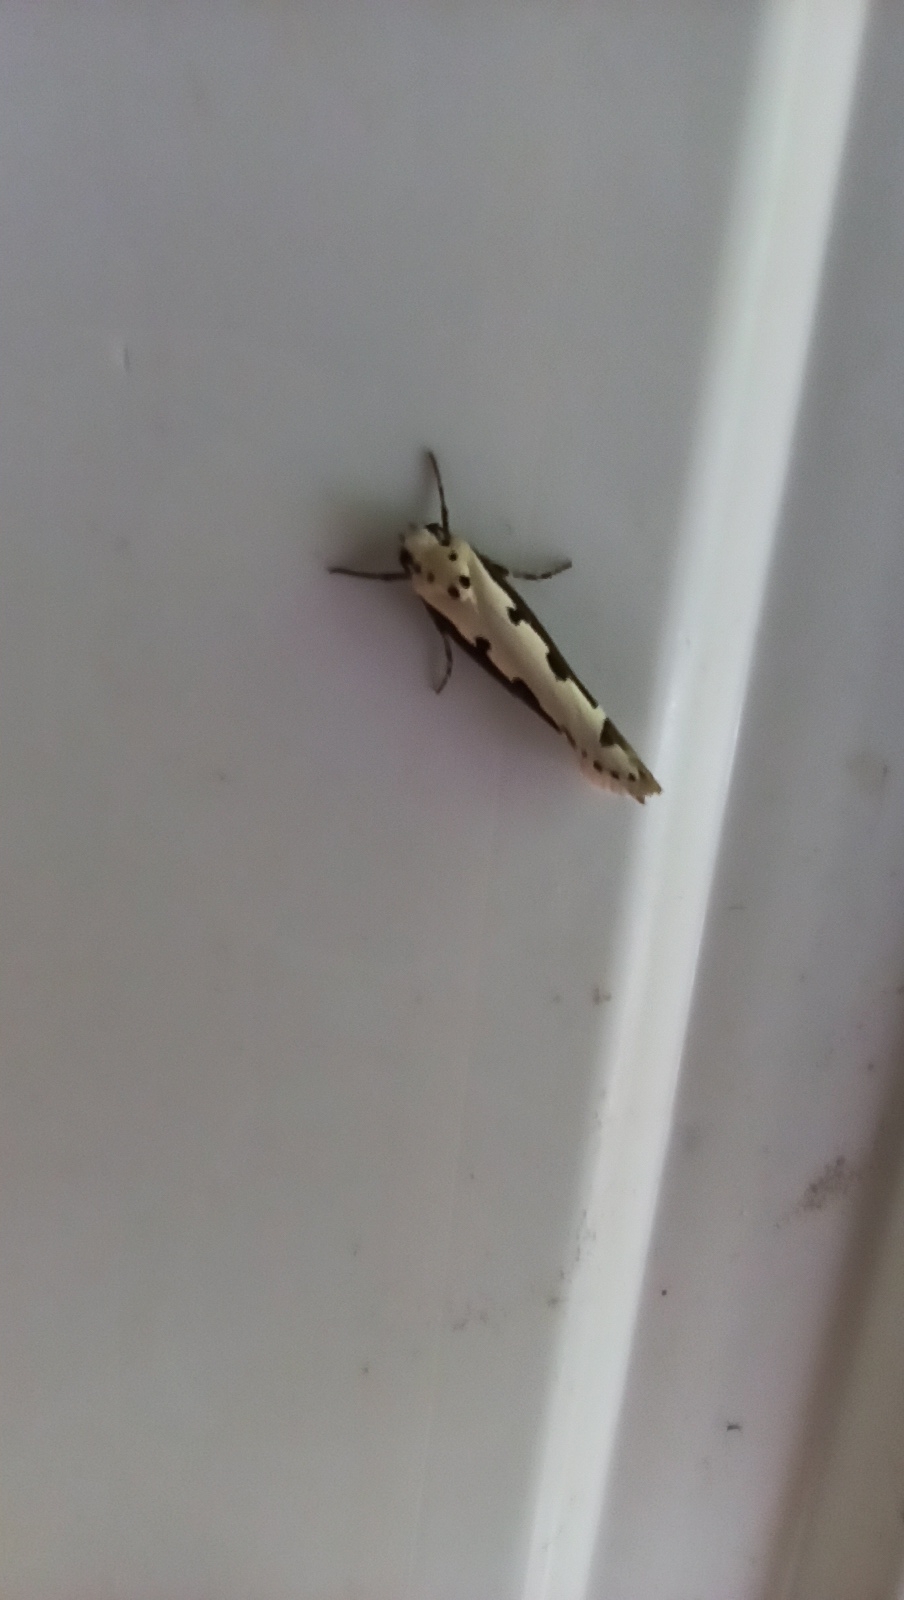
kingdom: Animalia
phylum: Arthropoda
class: Insecta
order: Lepidoptera
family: Ethmiidae
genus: Ethmia
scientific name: Ethmia bipunctella
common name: Bordered ermel
